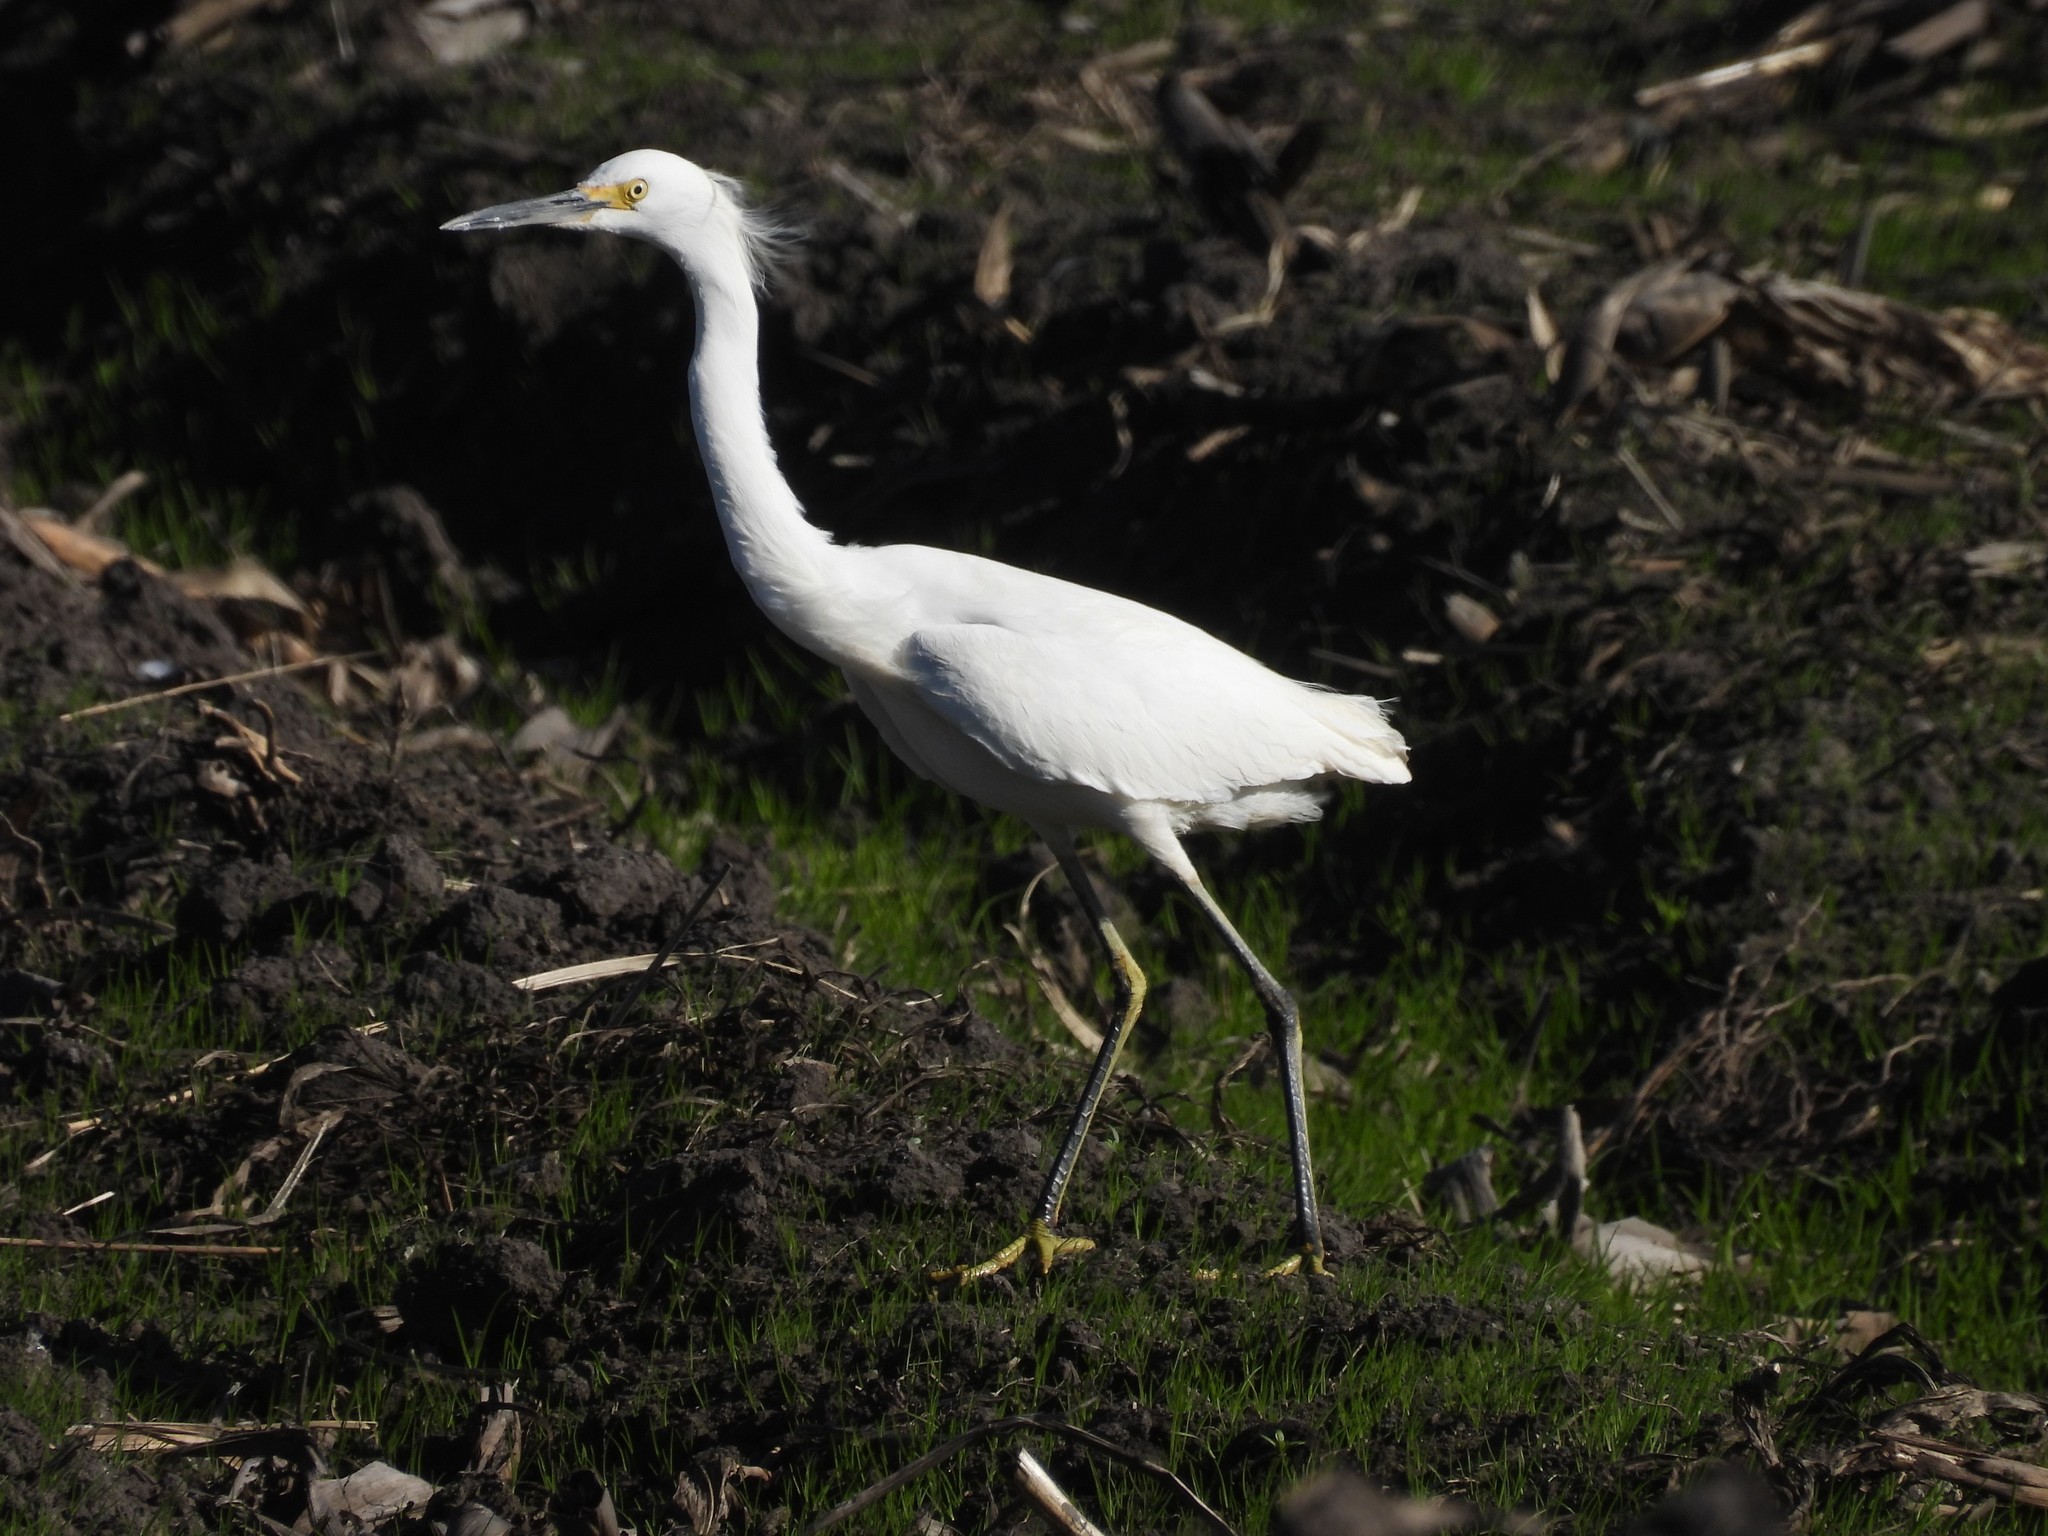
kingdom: Animalia
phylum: Chordata
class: Aves
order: Pelecaniformes
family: Ardeidae
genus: Egretta
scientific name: Egretta thula
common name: Snowy egret
